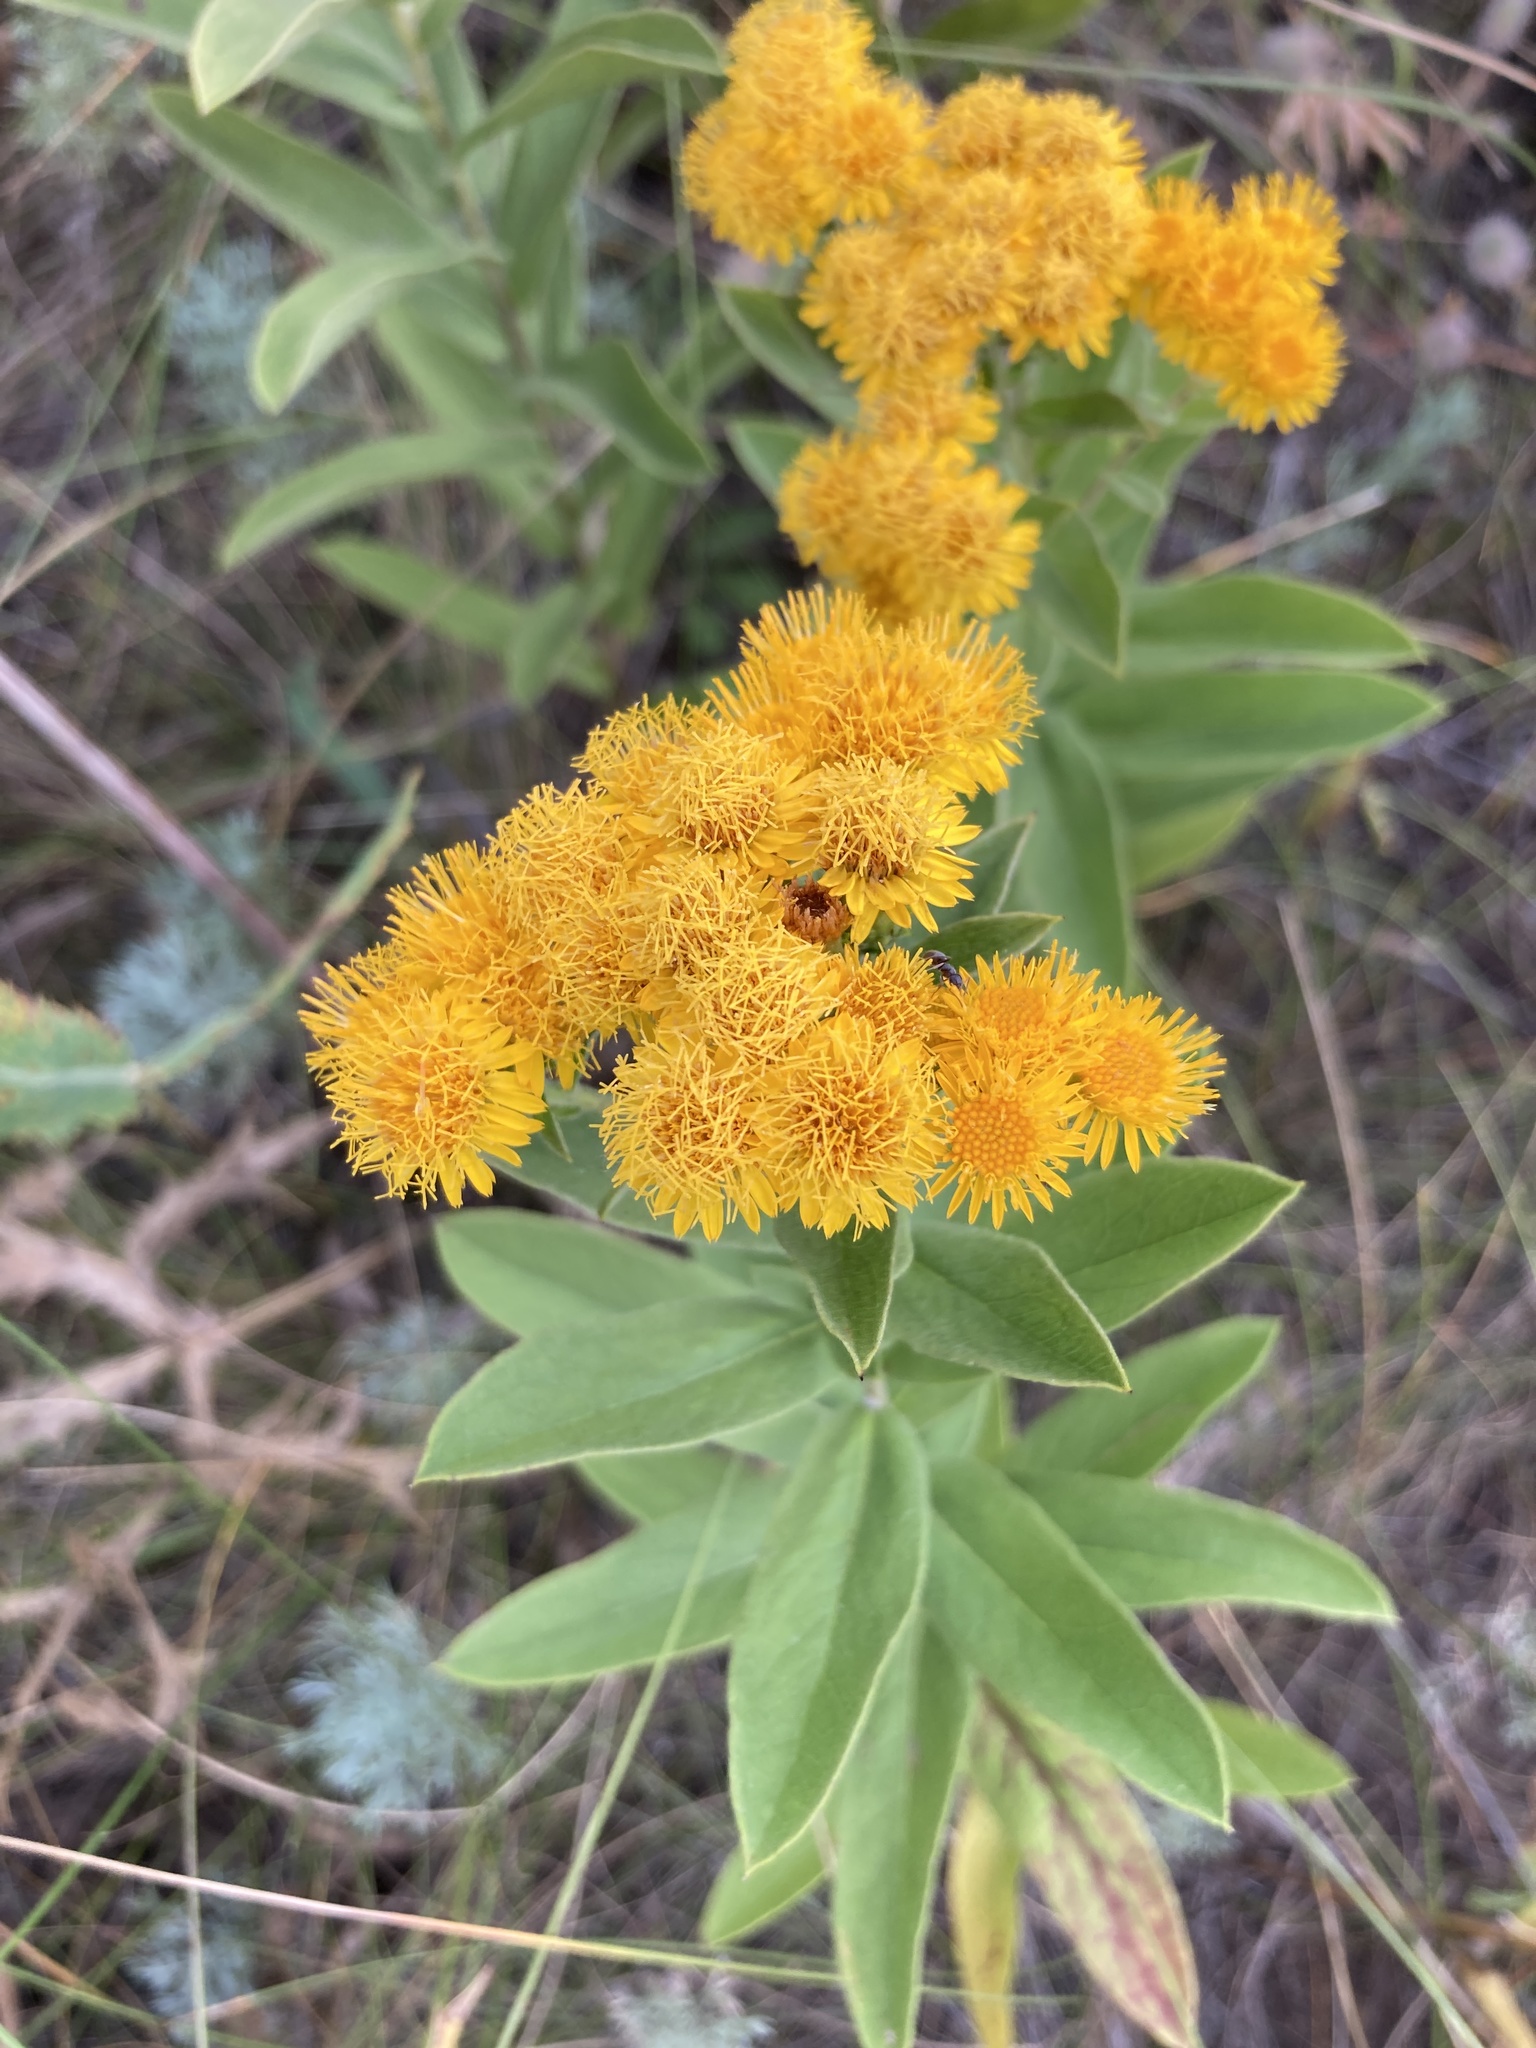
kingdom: Plantae
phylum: Tracheophyta
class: Magnoliopsida
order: Asterales
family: Asteraceae
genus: Pentanema
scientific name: Pentanema germanicum
